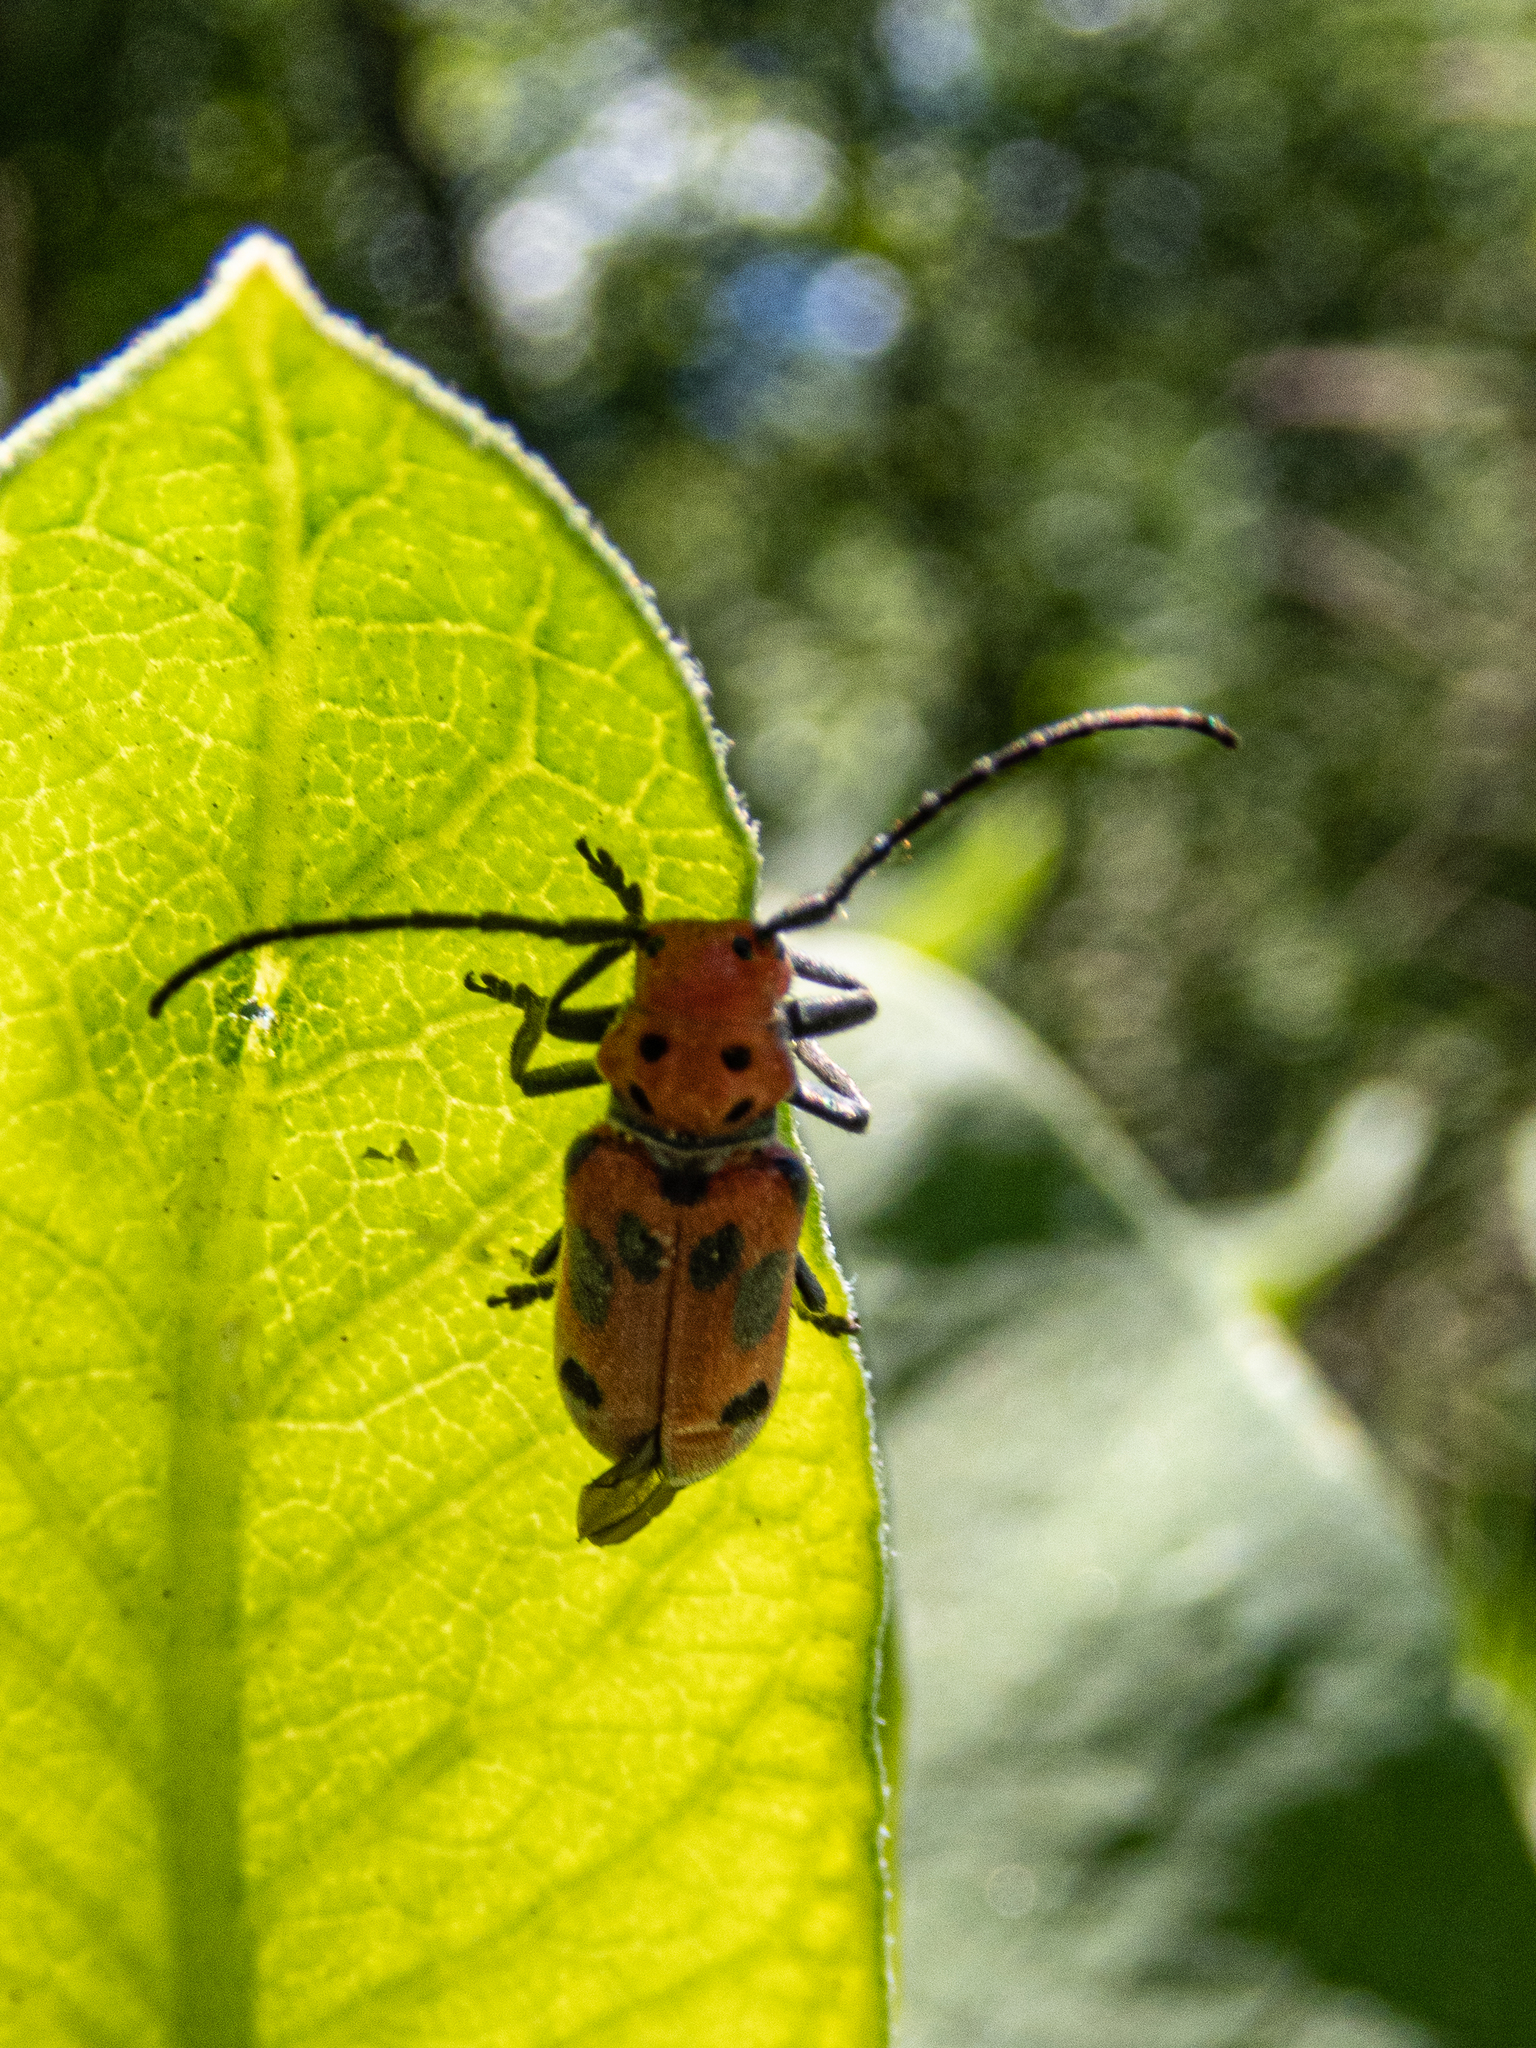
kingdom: Animalia
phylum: Arthropoda
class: Insecta
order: Coleoptera
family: Cerambycidae
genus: Tetraopes
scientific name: Tetraopes tetrophthalmus
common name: Red milkweed beetle
